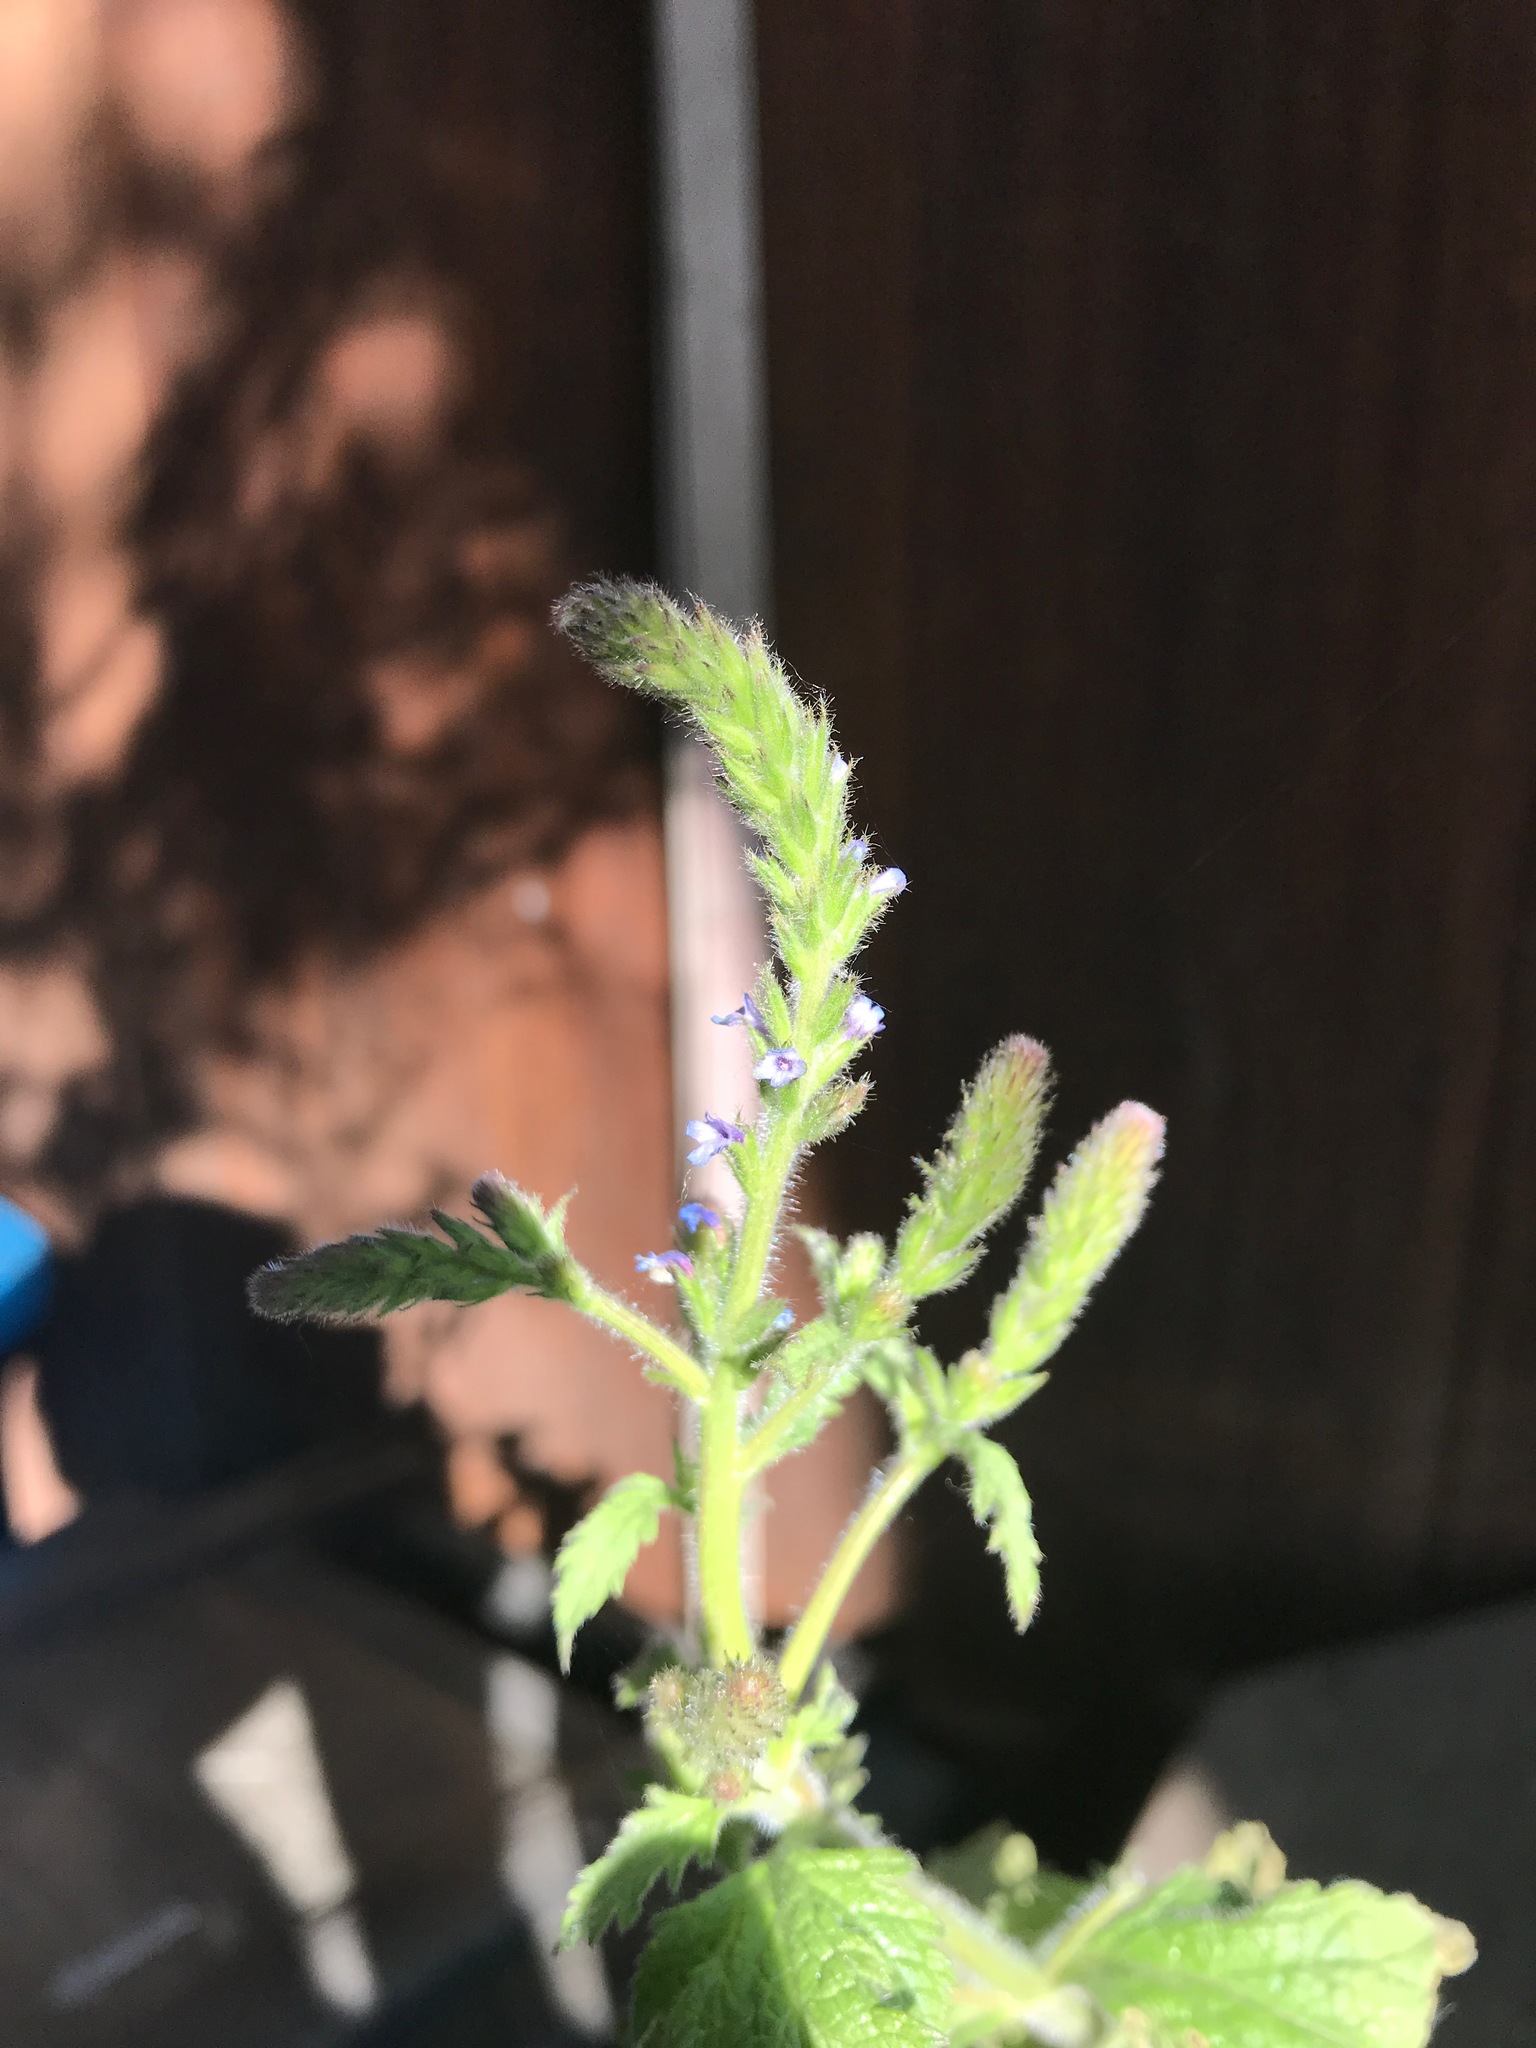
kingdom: Plantae
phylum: Tracheophyta
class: Magnoliopsida
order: Lamiales
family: Verbenaceae
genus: Verbena
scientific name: Verbena lasiostachys
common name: Vervain
